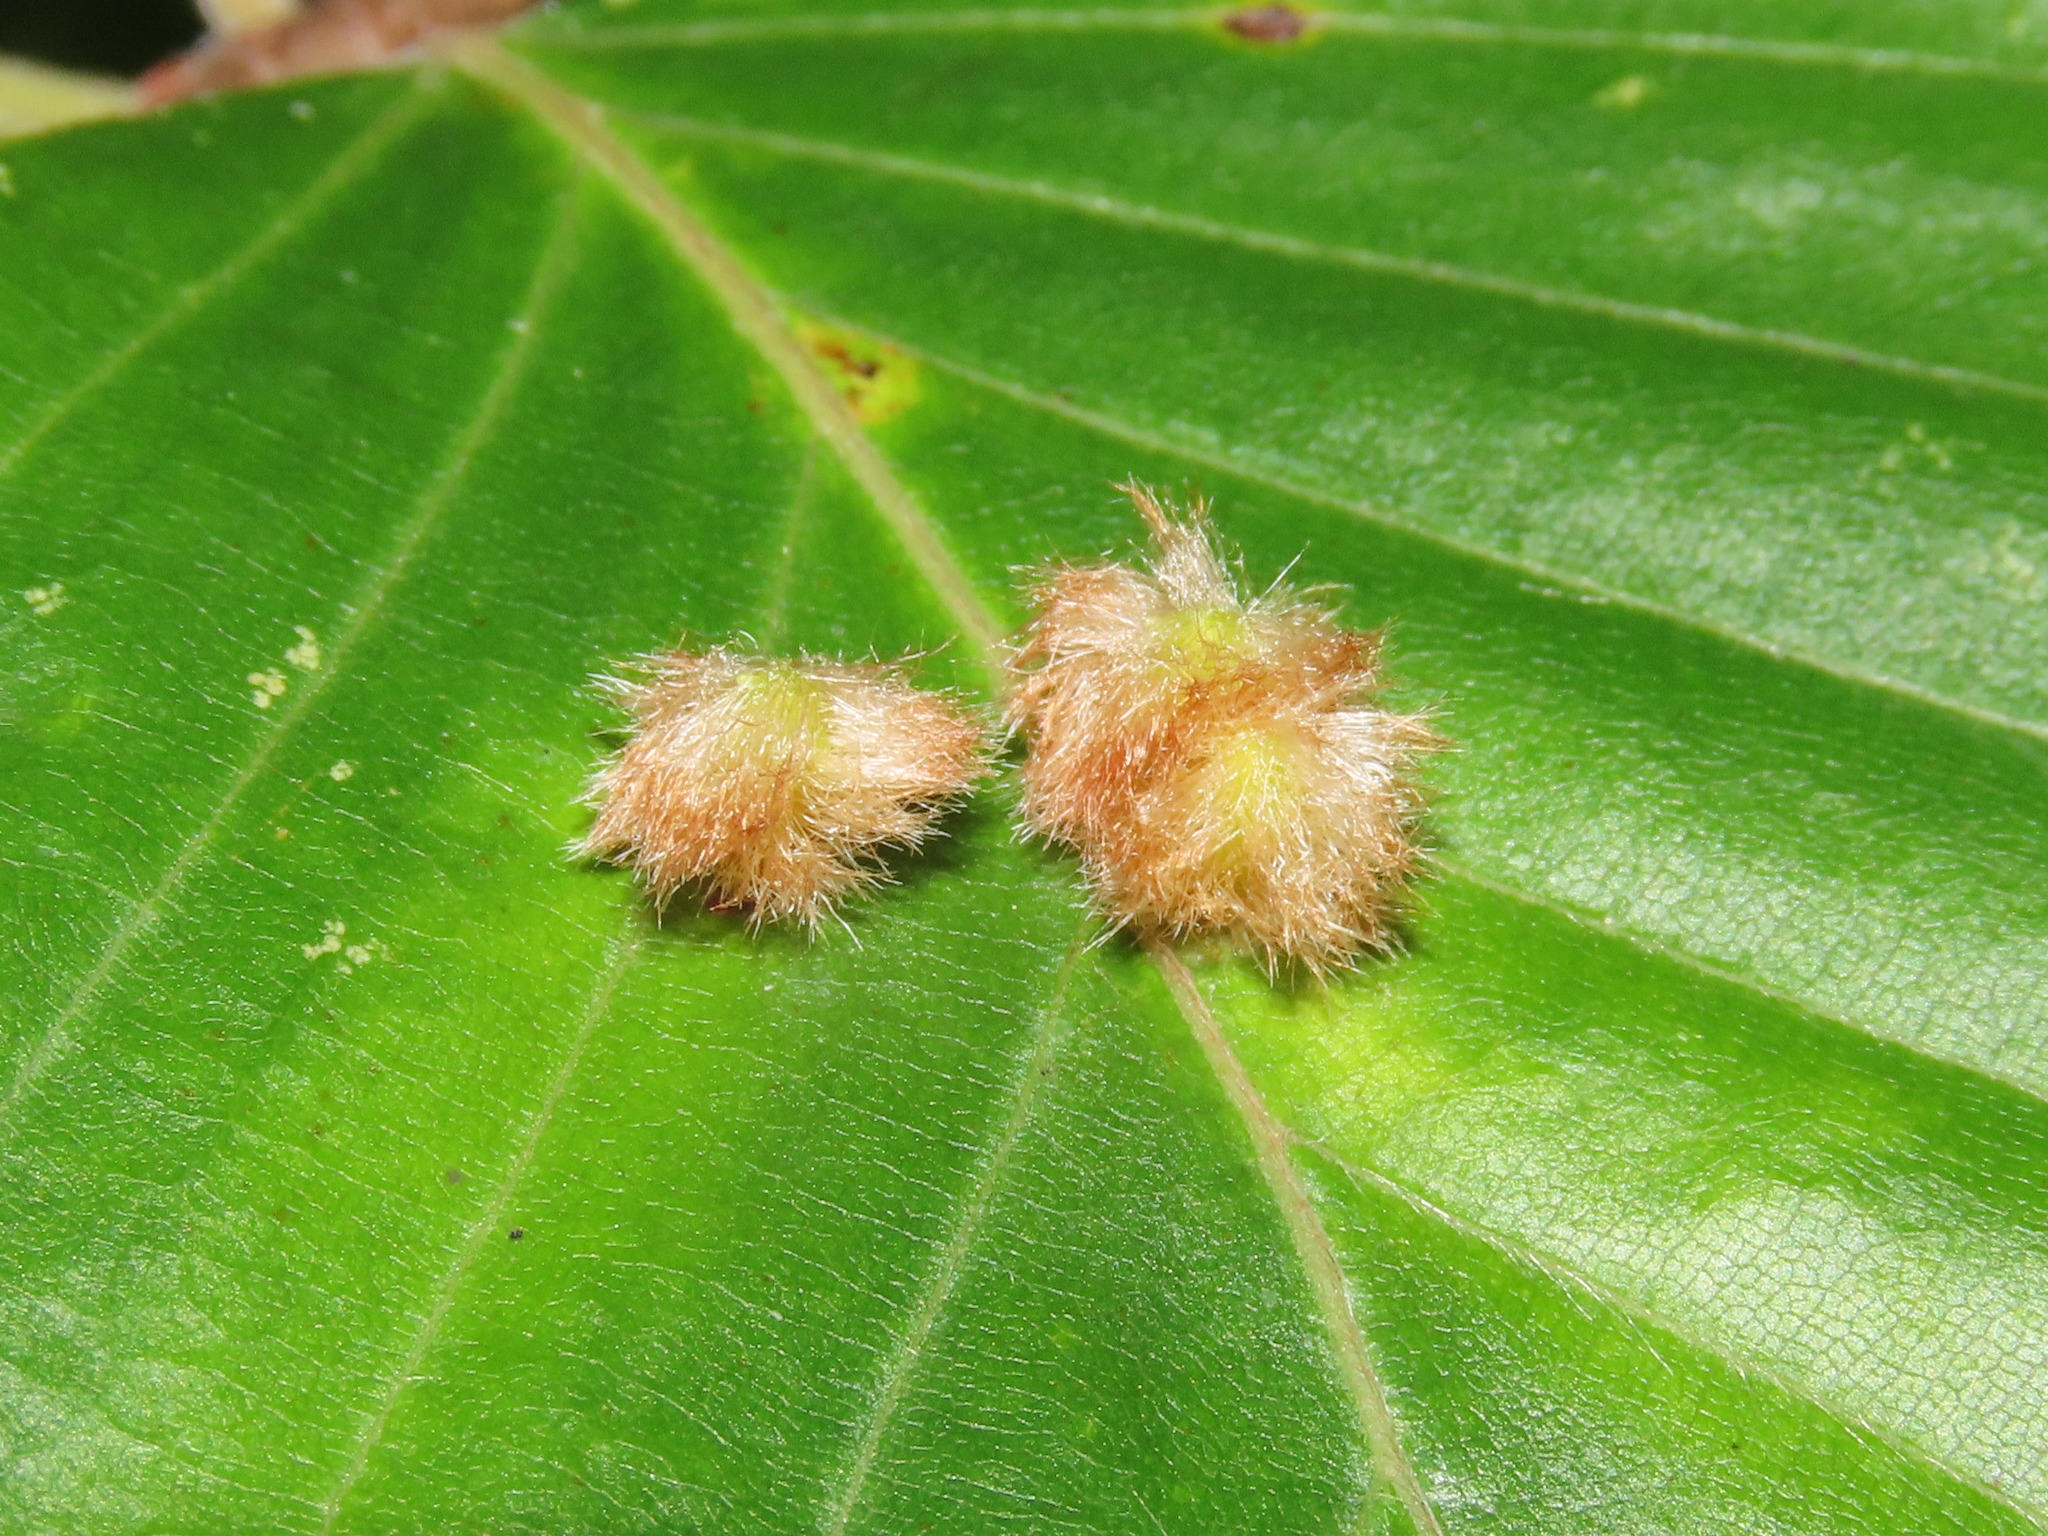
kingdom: Animalia
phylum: Arthropoda
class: Insecta
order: Diptera
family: Cecidomyiidae
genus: Hartigiola
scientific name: Hartigiola annulipes
